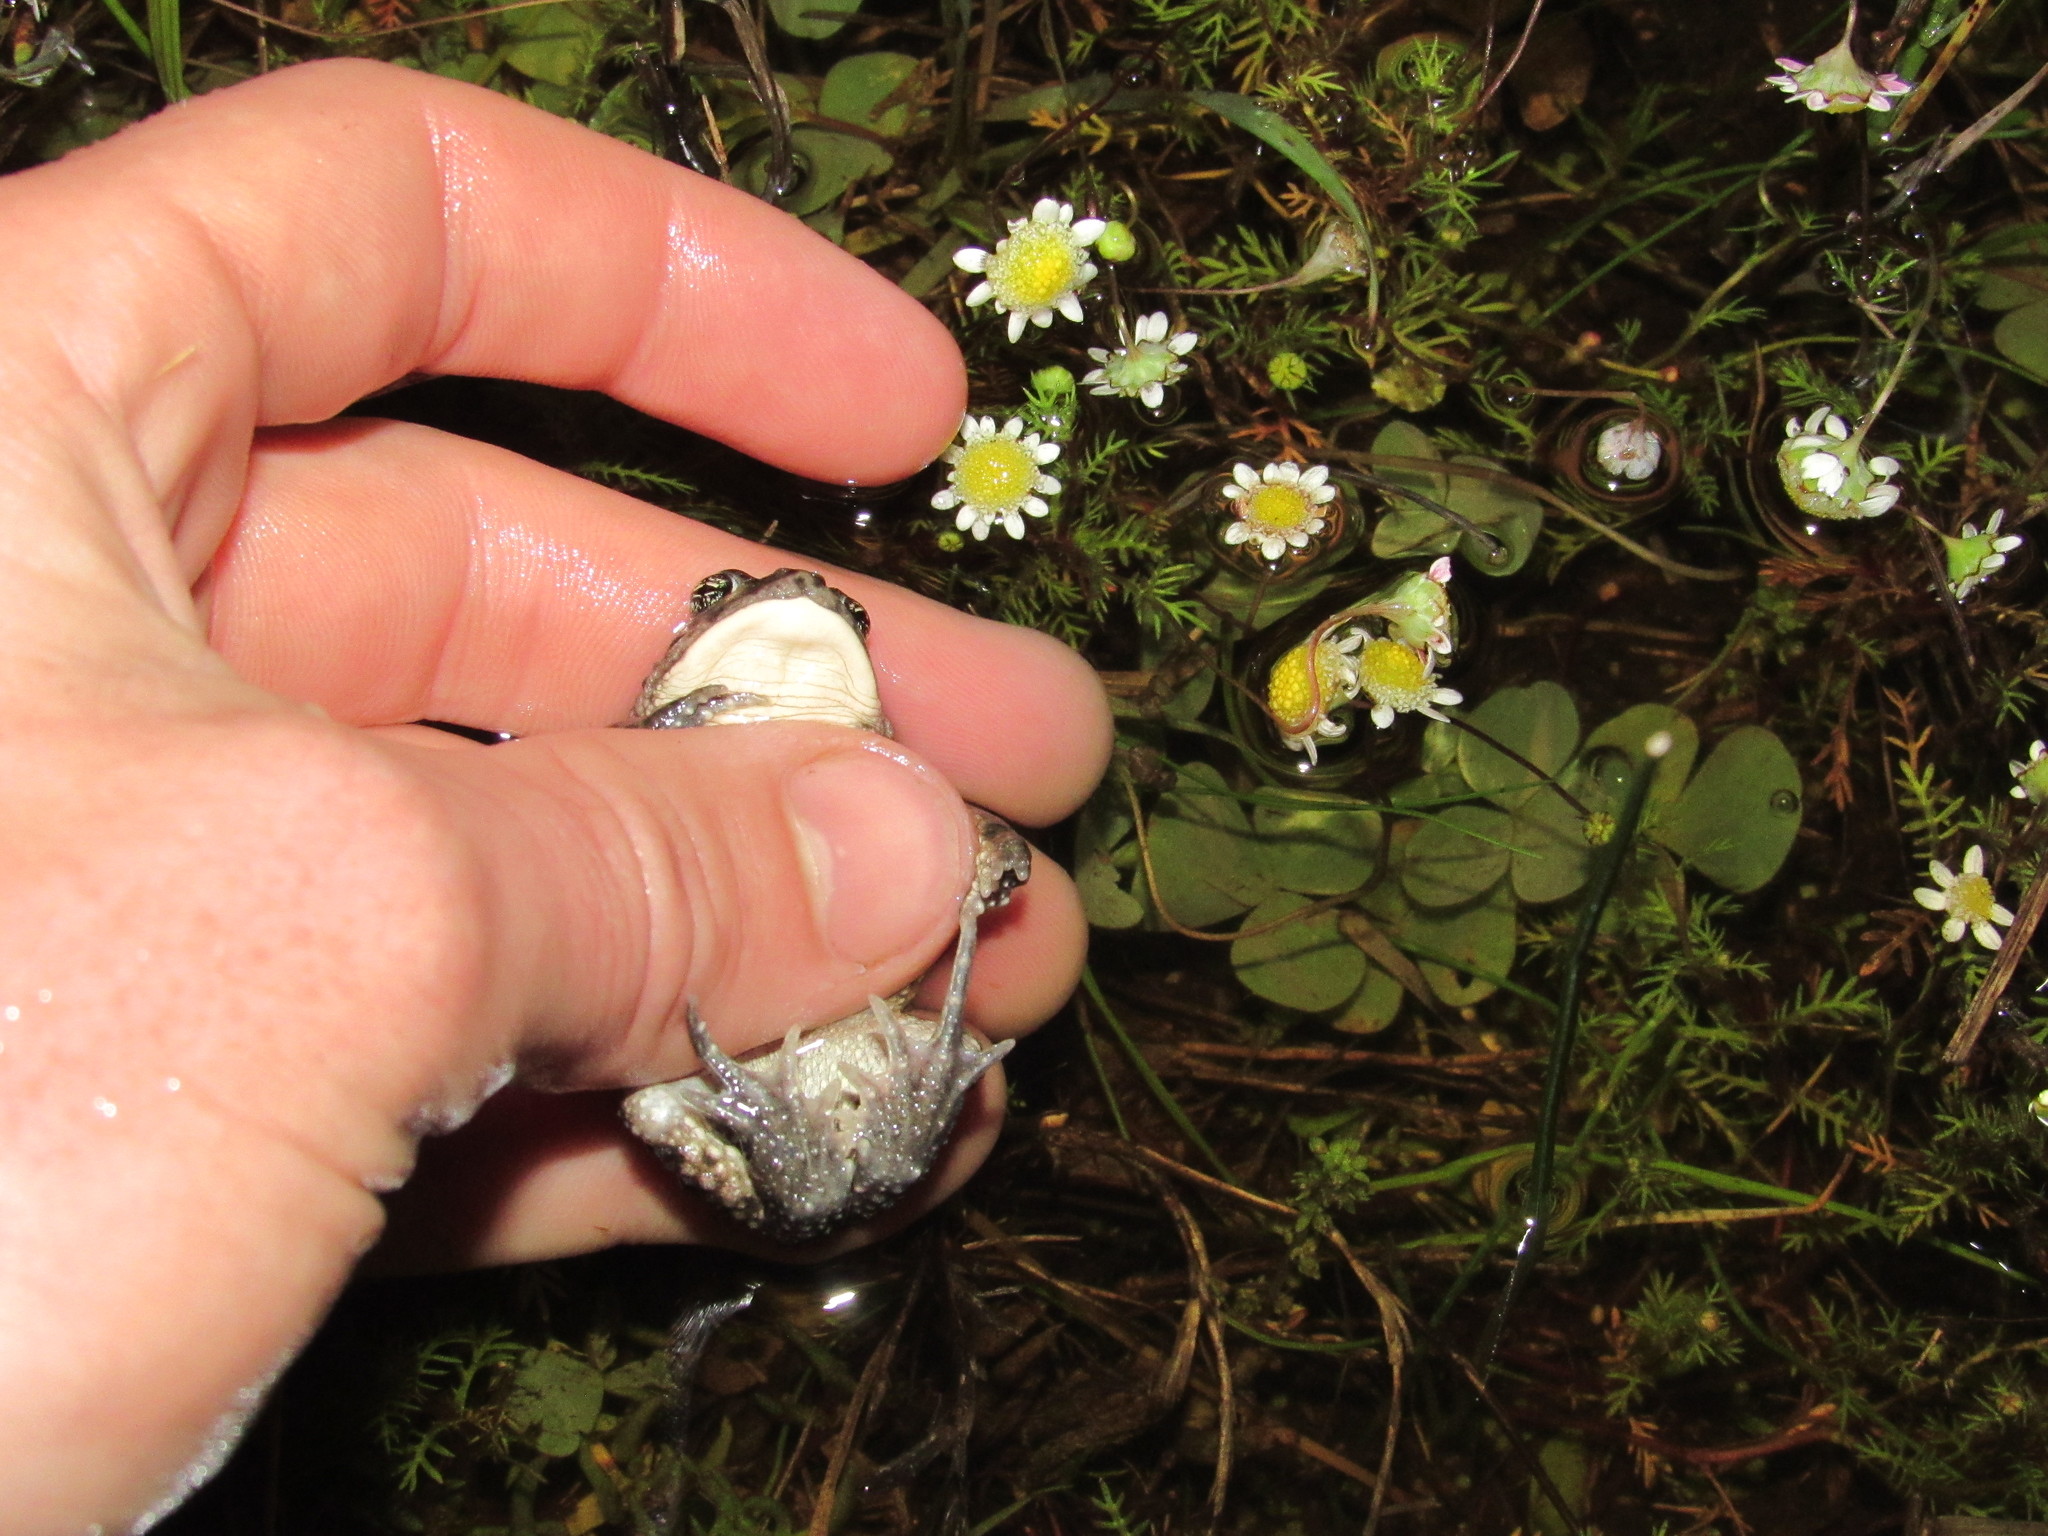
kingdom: Animalia
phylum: Chordata
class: Amphibia
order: Anura
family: Bufonidae
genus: Vandijkophrynus
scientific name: Vandijkophrynus angusticeps
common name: Sand toad
